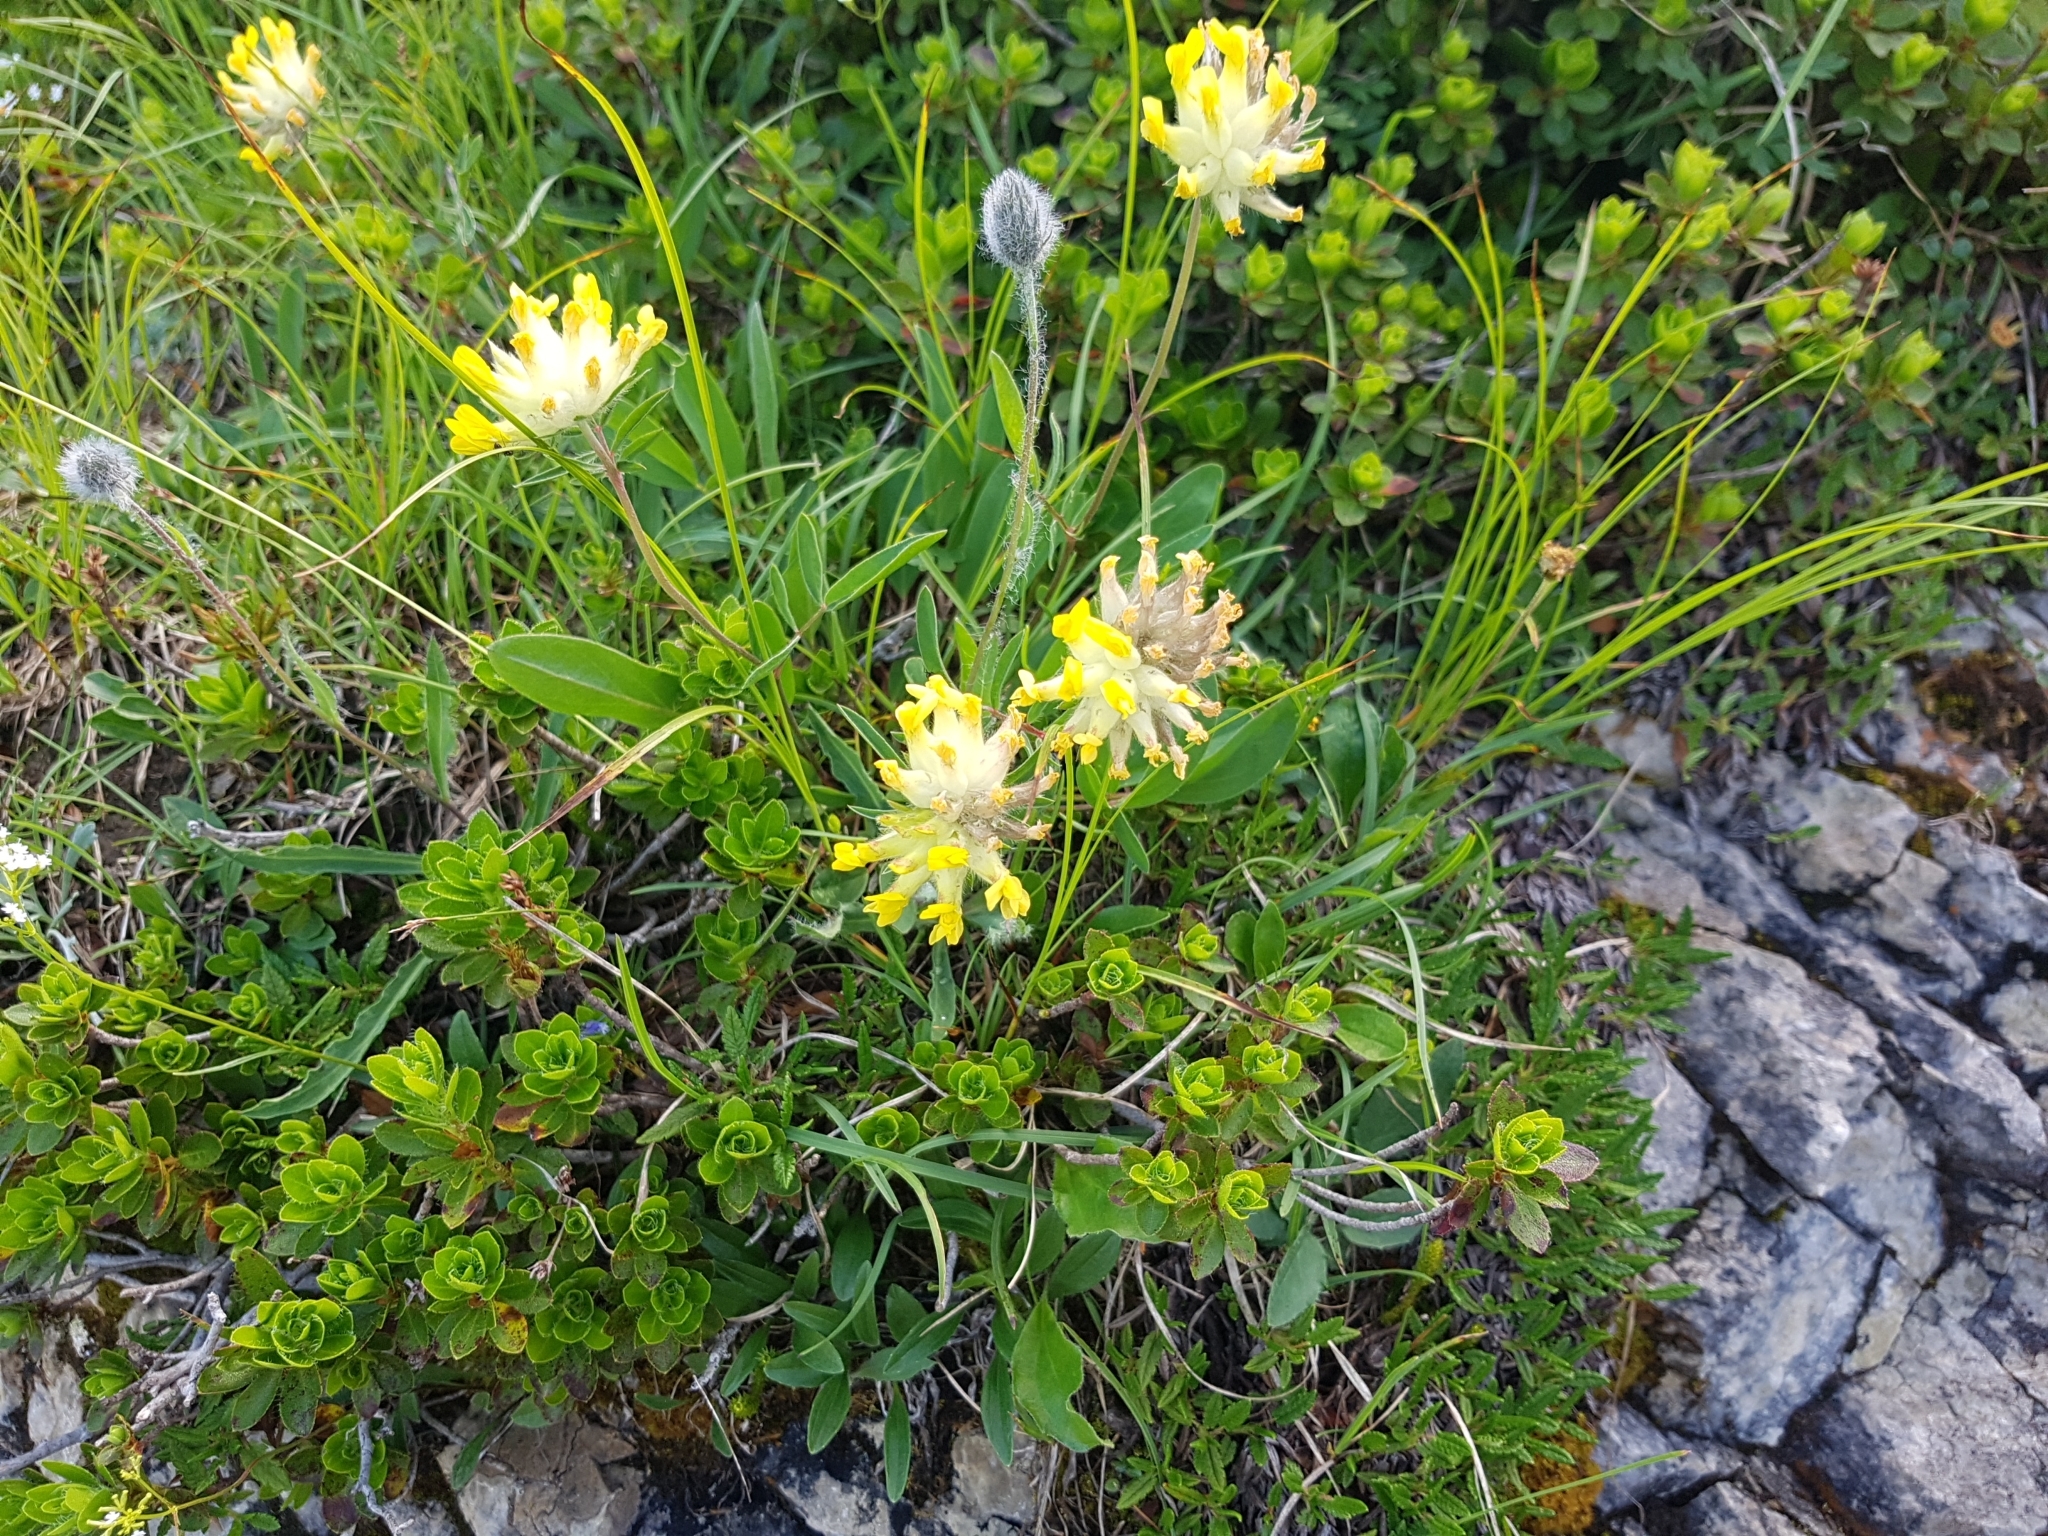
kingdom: Plantae
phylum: Tracheophyta
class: Magnoliopsida
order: Fabales
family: Fabaceae
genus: Anthyllis
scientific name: Anthyllis vulneraria
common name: Kidney vetch
